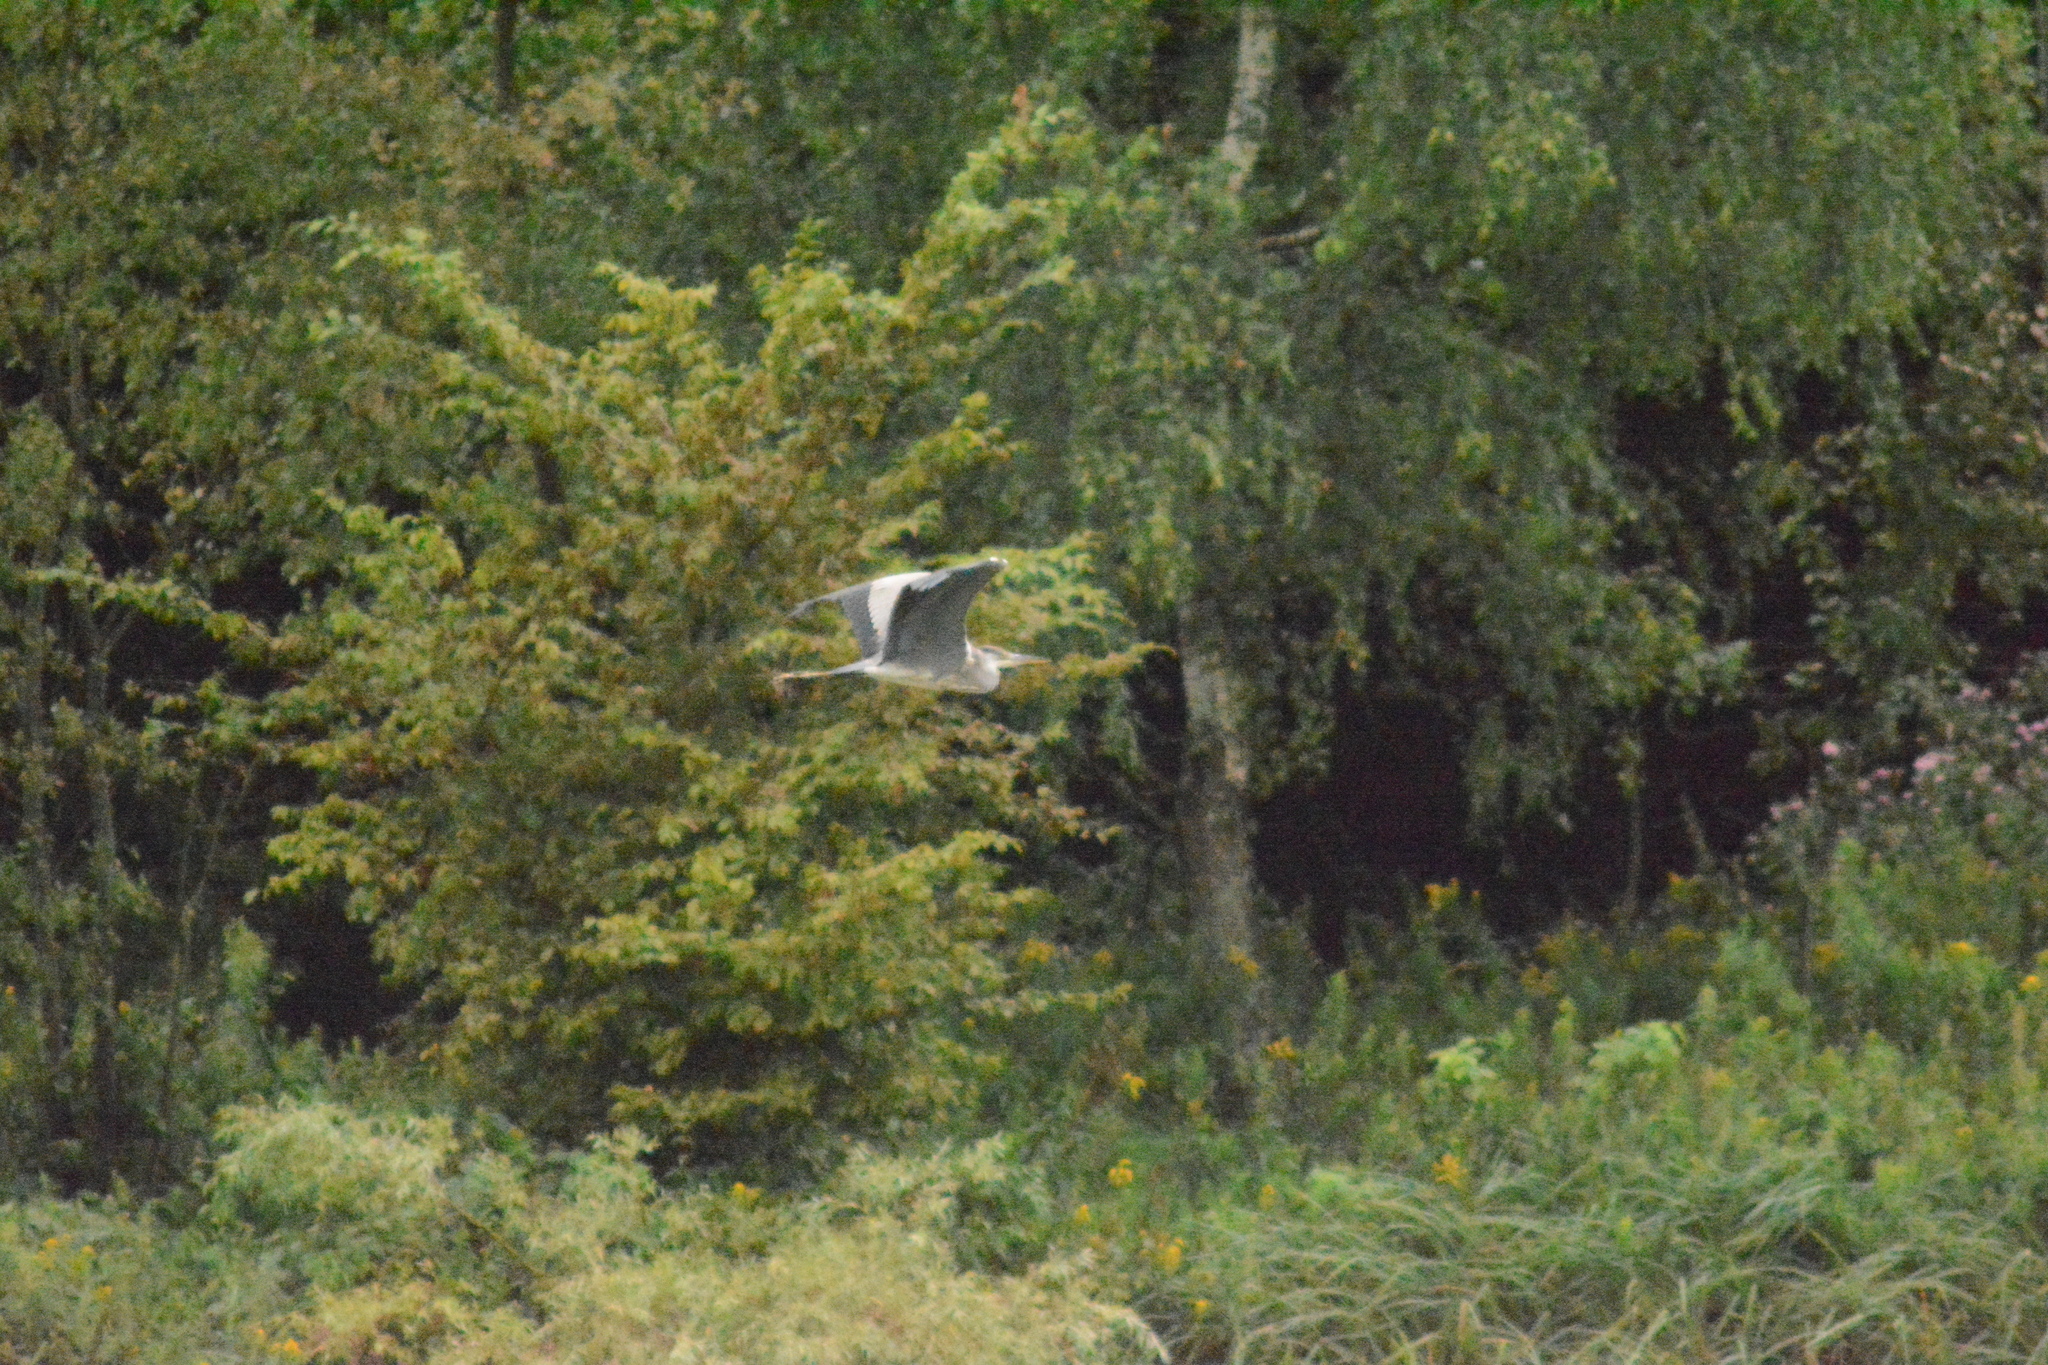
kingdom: Animalia
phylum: Chordata
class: Aves
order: Pelecaniformes
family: Ardeidae
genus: Ardea
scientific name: Ardea cinerea
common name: Grey heron
